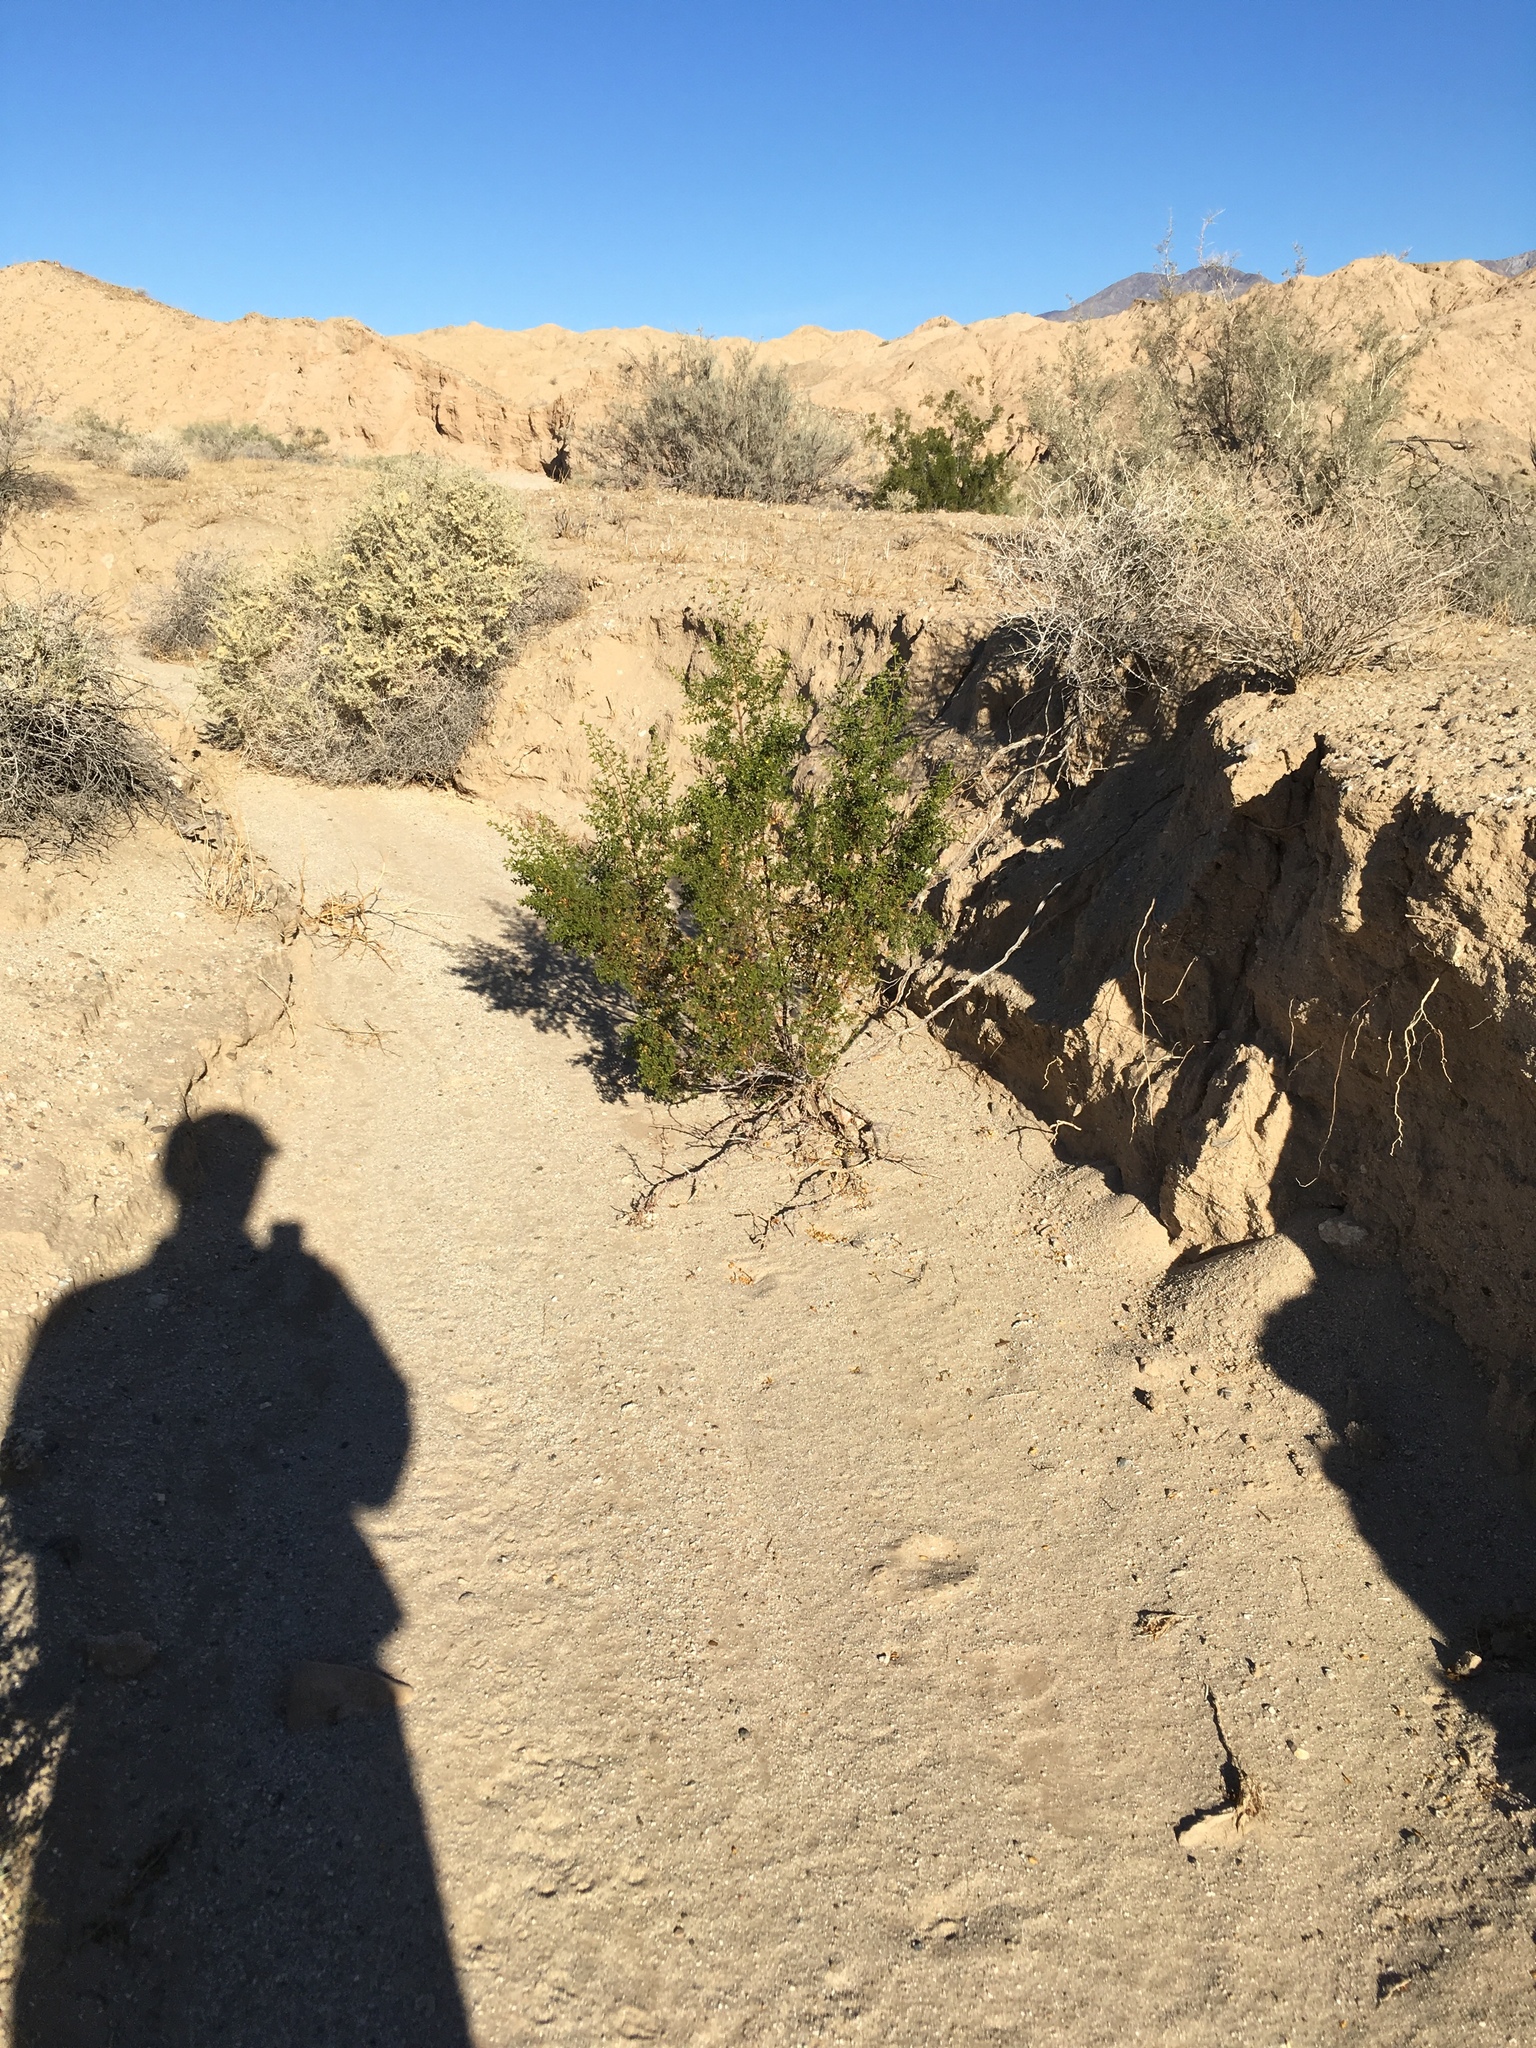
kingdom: Plantae
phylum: Tracheophyta
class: Magnoliopsida
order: Zygophyllales
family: Zygophyllaceae
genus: Larrea
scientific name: Larrea tridentata
